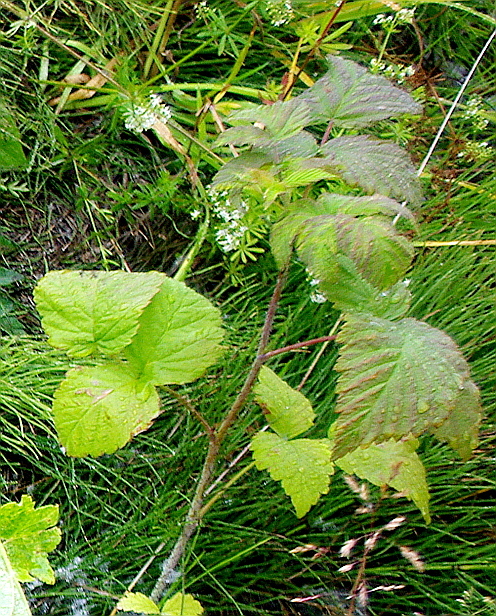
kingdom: Plantae
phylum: Tracheophyta
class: Magnoliopsida
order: Rosales
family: Rosaceae
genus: Rubus
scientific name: Rubus idaeus
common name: Raspberry
